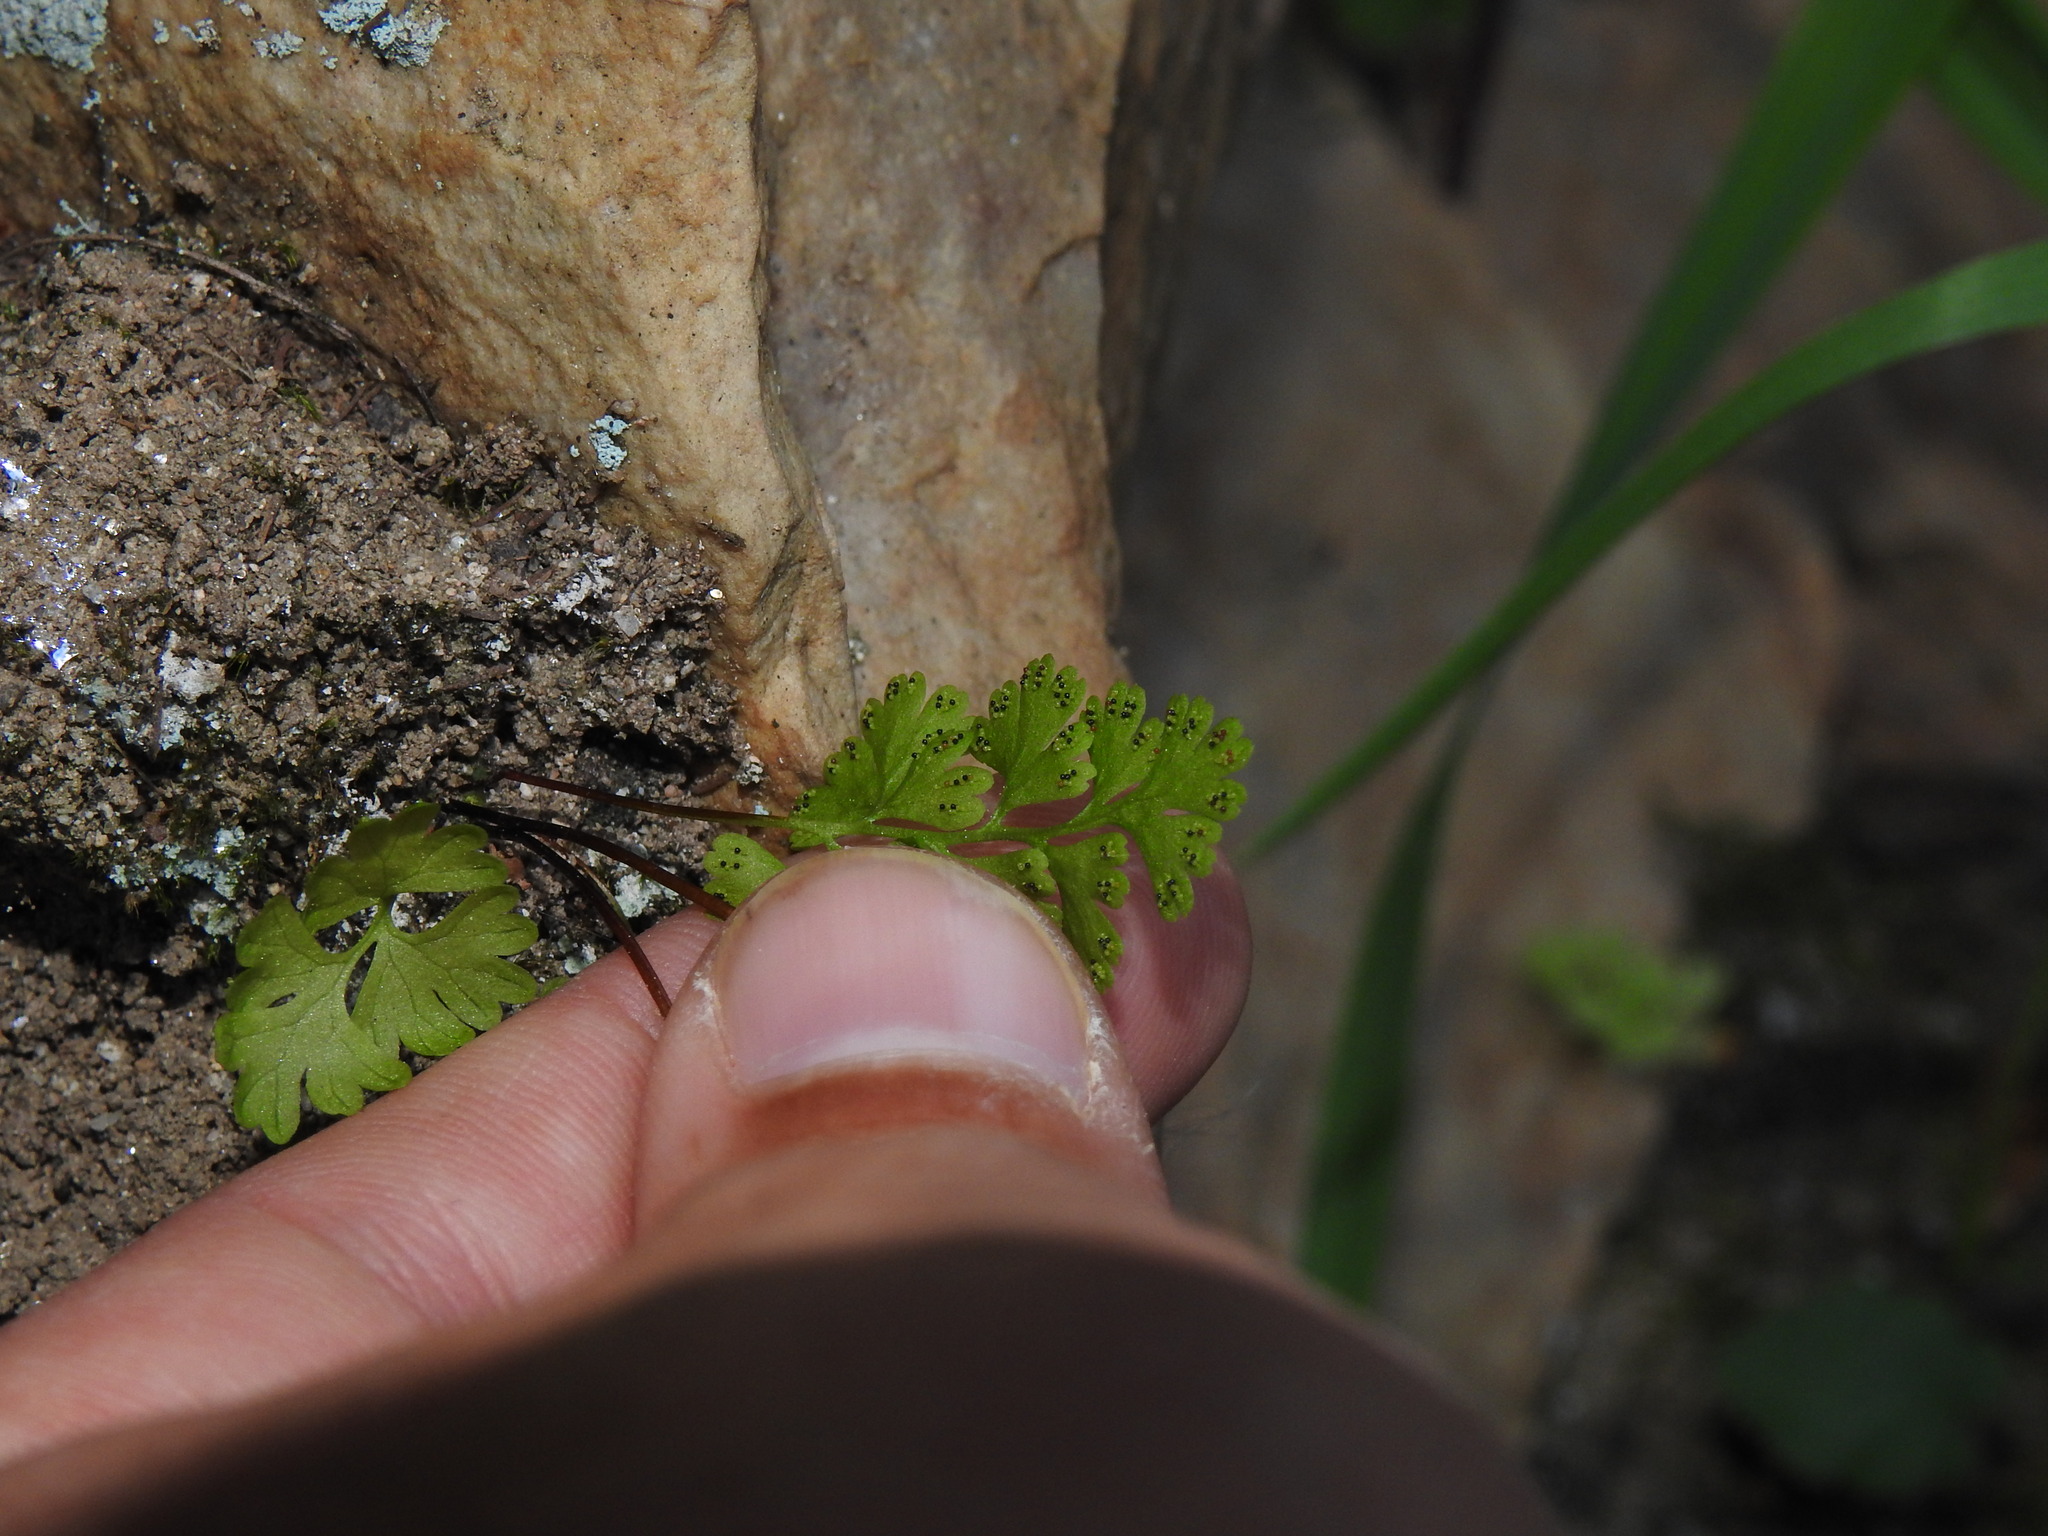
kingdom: Plantae
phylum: Tracheophyta
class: Polypodiopsida
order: Polypodiales
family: Pteridaceae
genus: Anogramma
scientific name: Anogramma leptophylla
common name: Jersey fern
